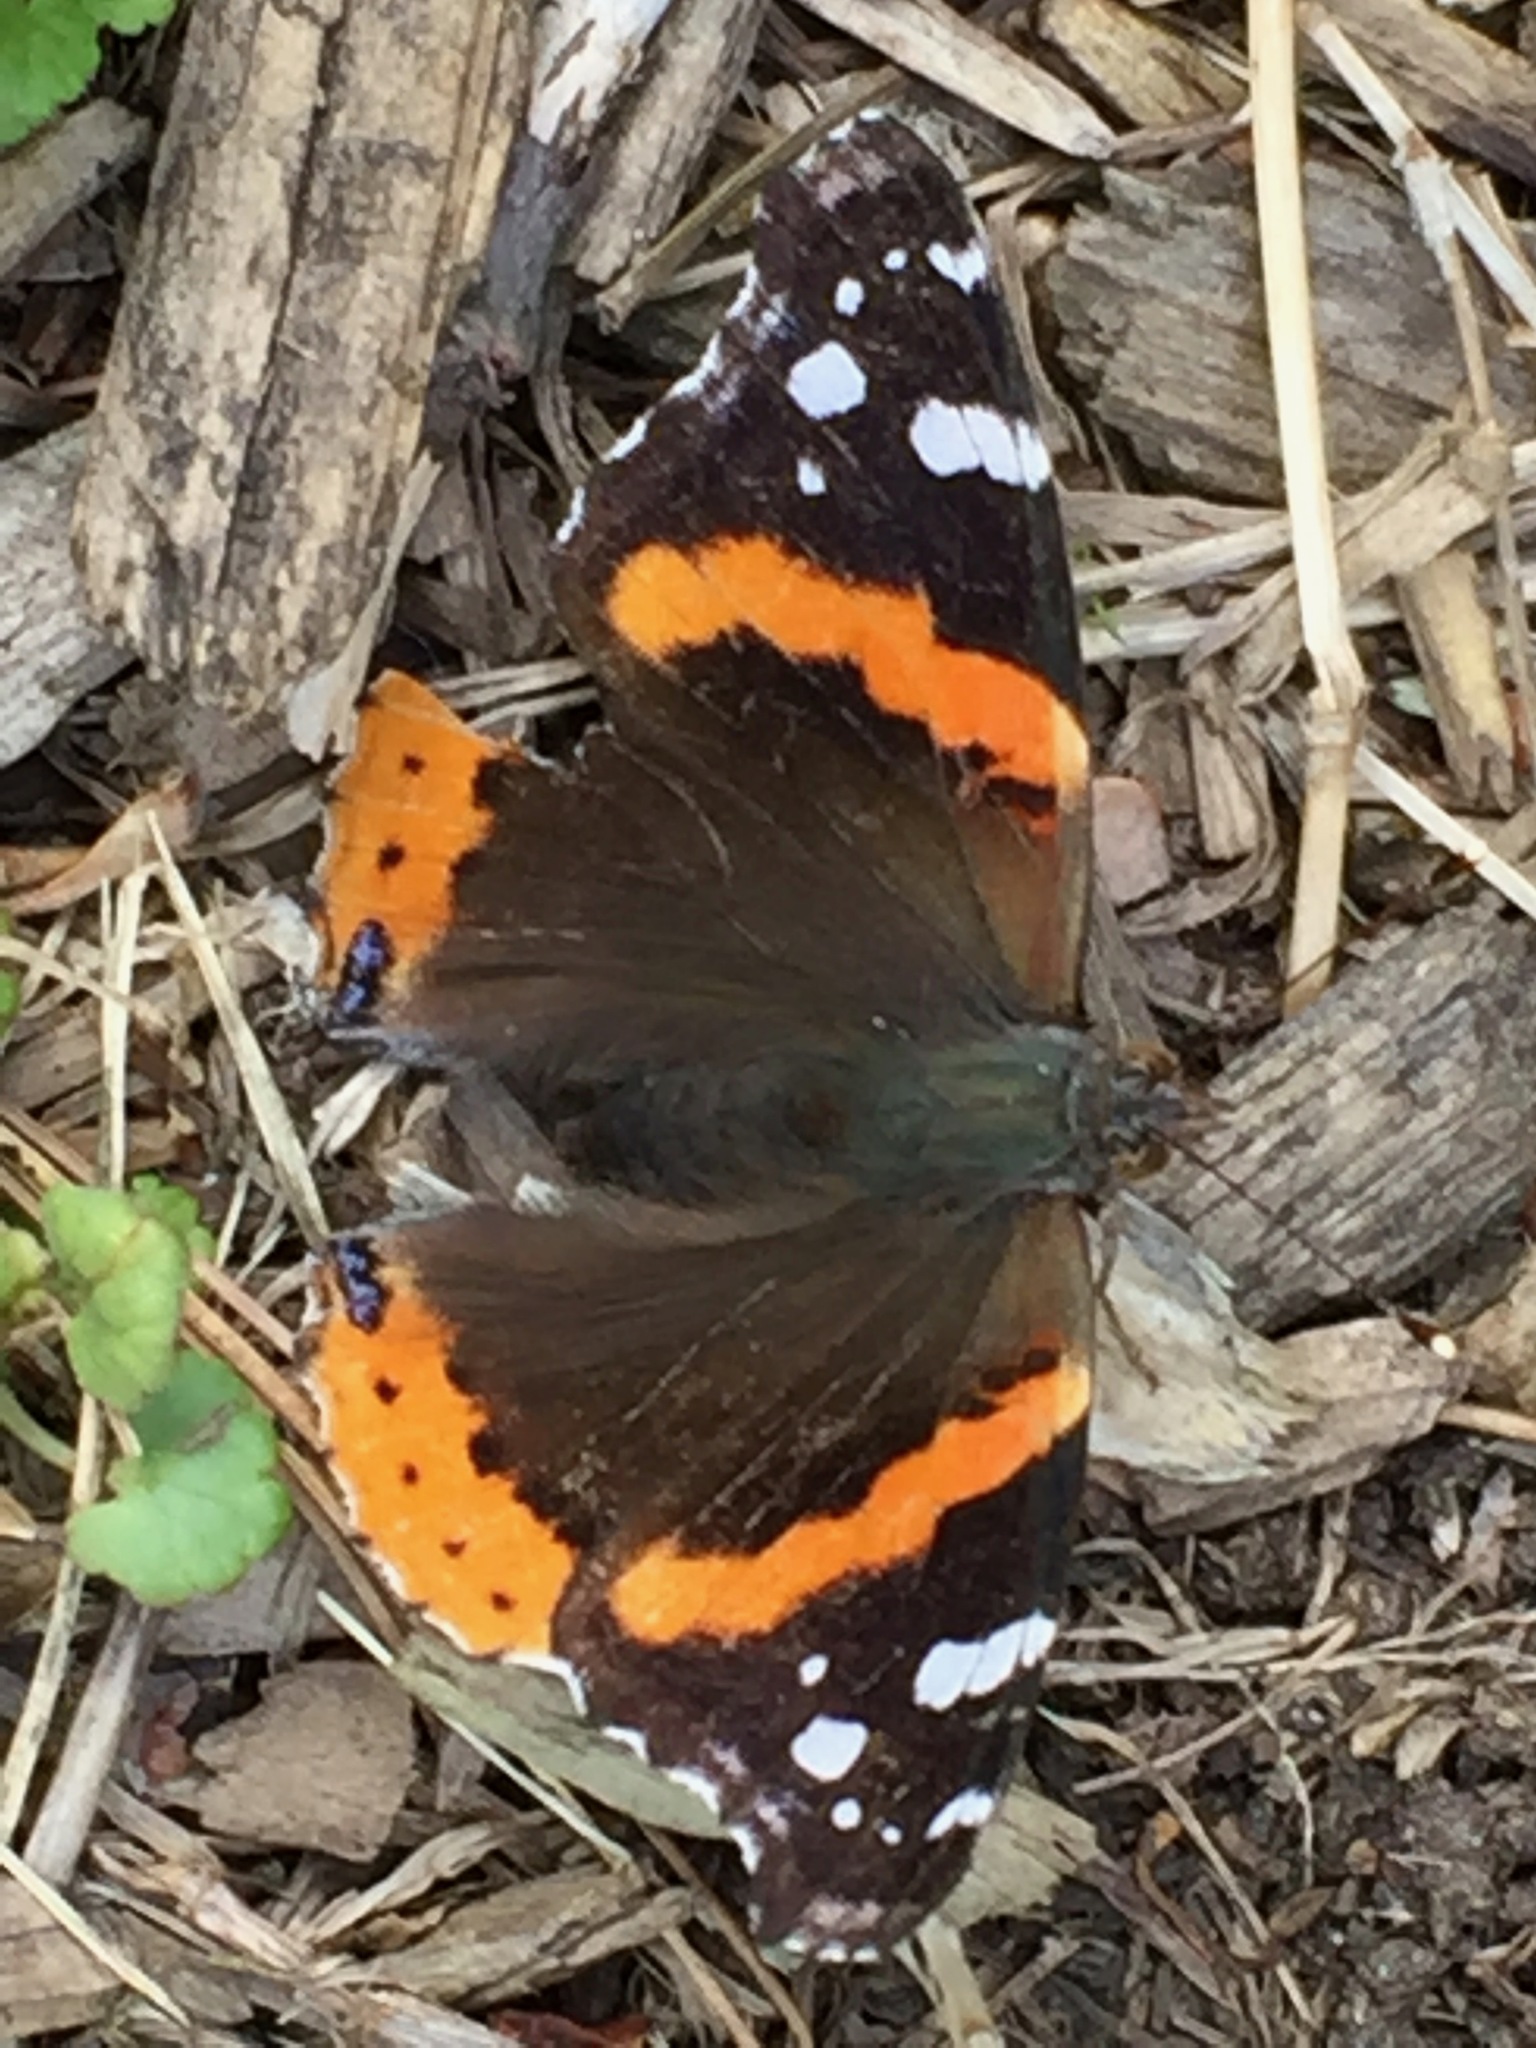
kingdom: Animalia
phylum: Arthropoda
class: Insecta
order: Lepidoptera
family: Nymphalidae
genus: Vanessa
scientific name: Vanessa atalanta
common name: Red admiral
